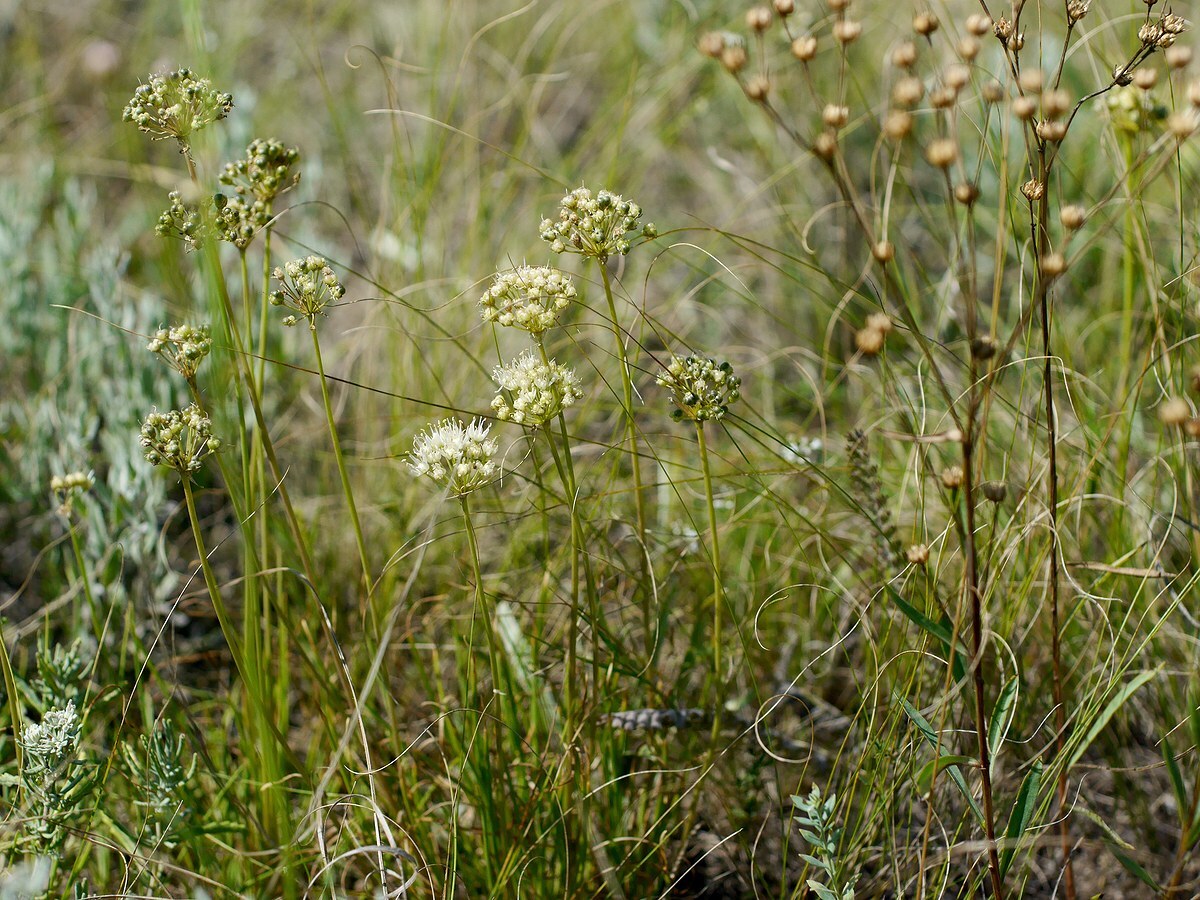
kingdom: Plantae
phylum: Tracheophyta
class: Liliopsida
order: Asparagales
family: Amaryllidaceae
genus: Allium
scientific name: Allium flavescens
